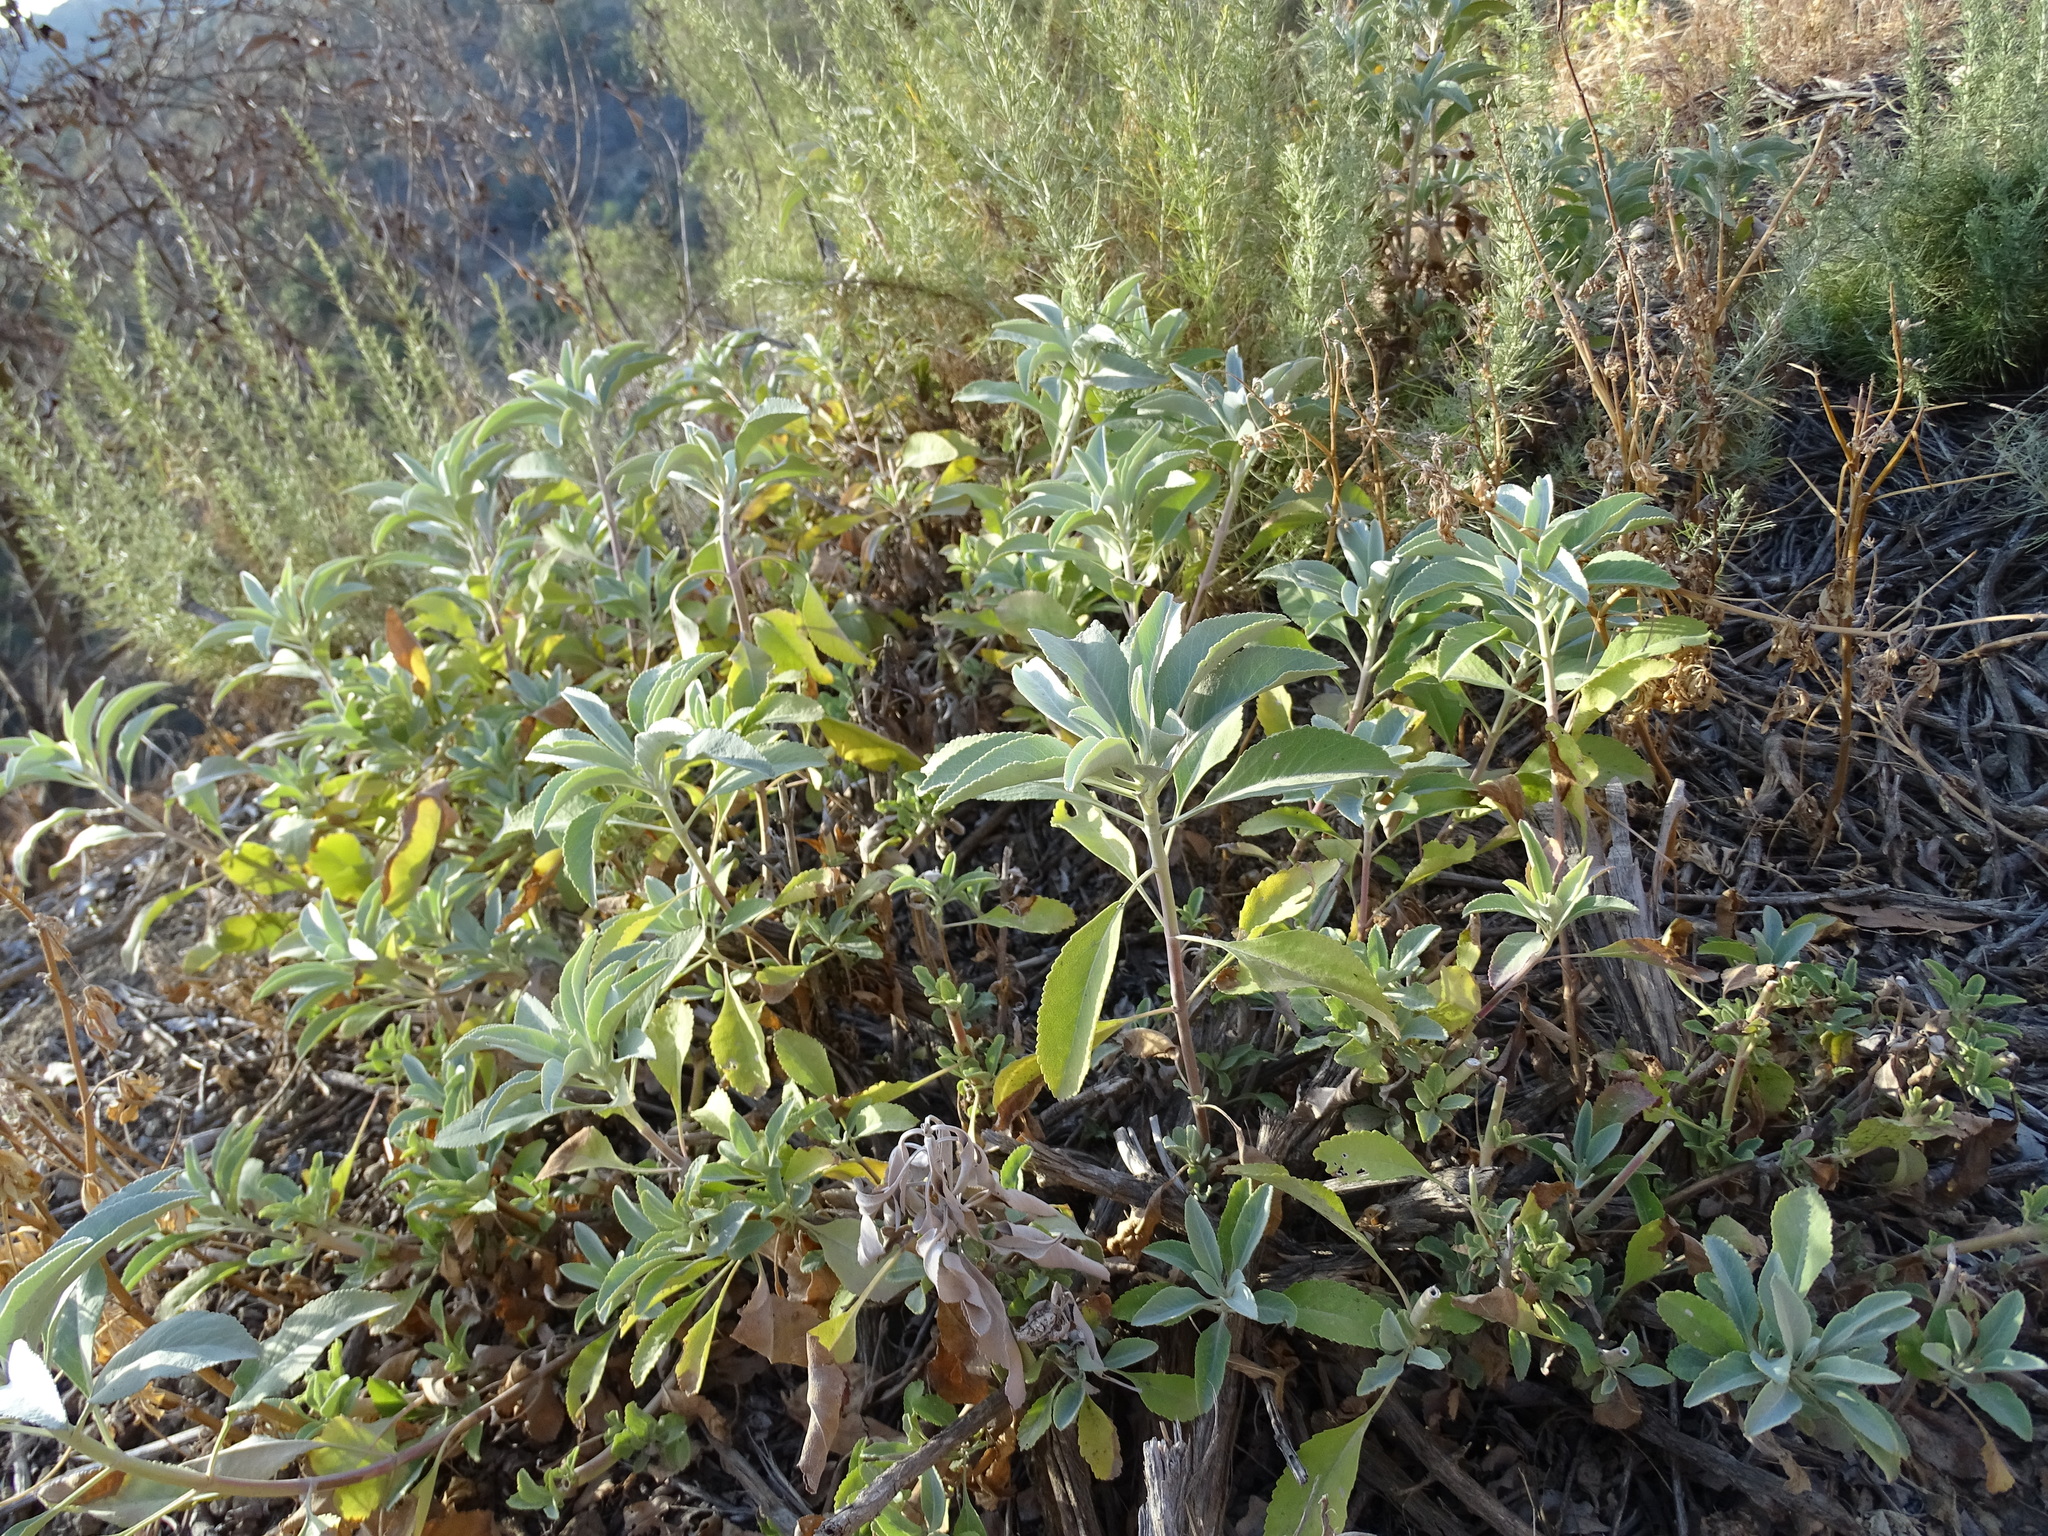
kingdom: Plantae
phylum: Tracheophyta
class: Magnoliopsida
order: Lamiales
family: Lamiaceae
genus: Salvia
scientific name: Salvia apiana
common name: White sage
